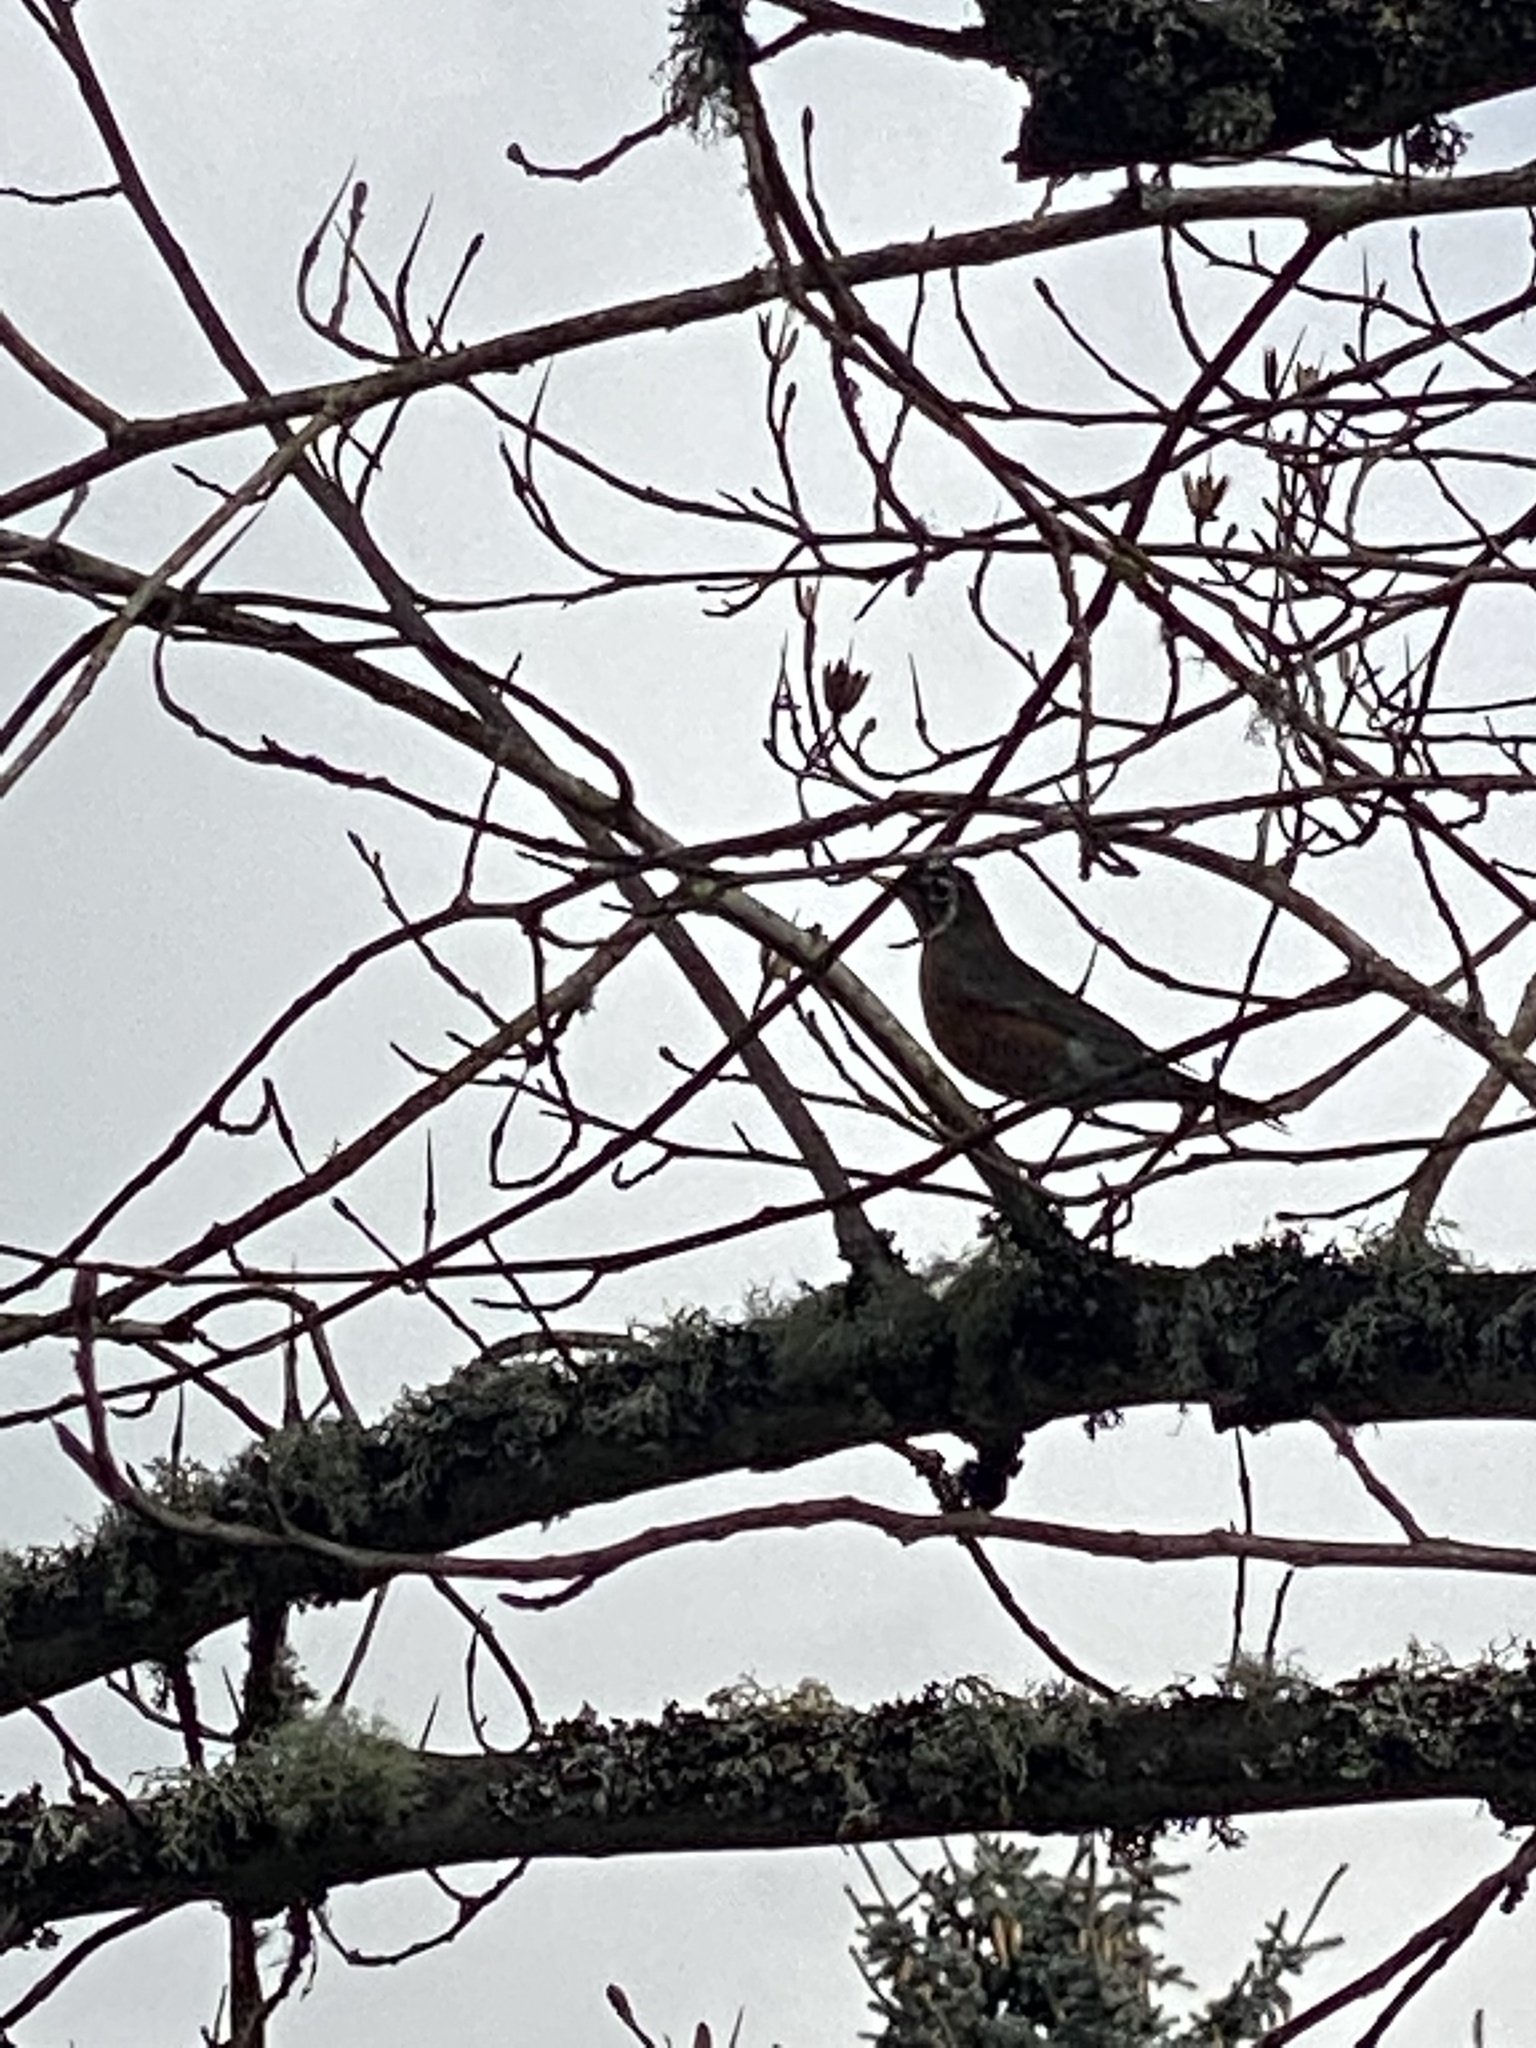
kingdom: Animalia
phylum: Chordata
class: Aves
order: Passeriformes
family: Turdidae
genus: Turdus
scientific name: Turdus migratorius
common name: American robin
